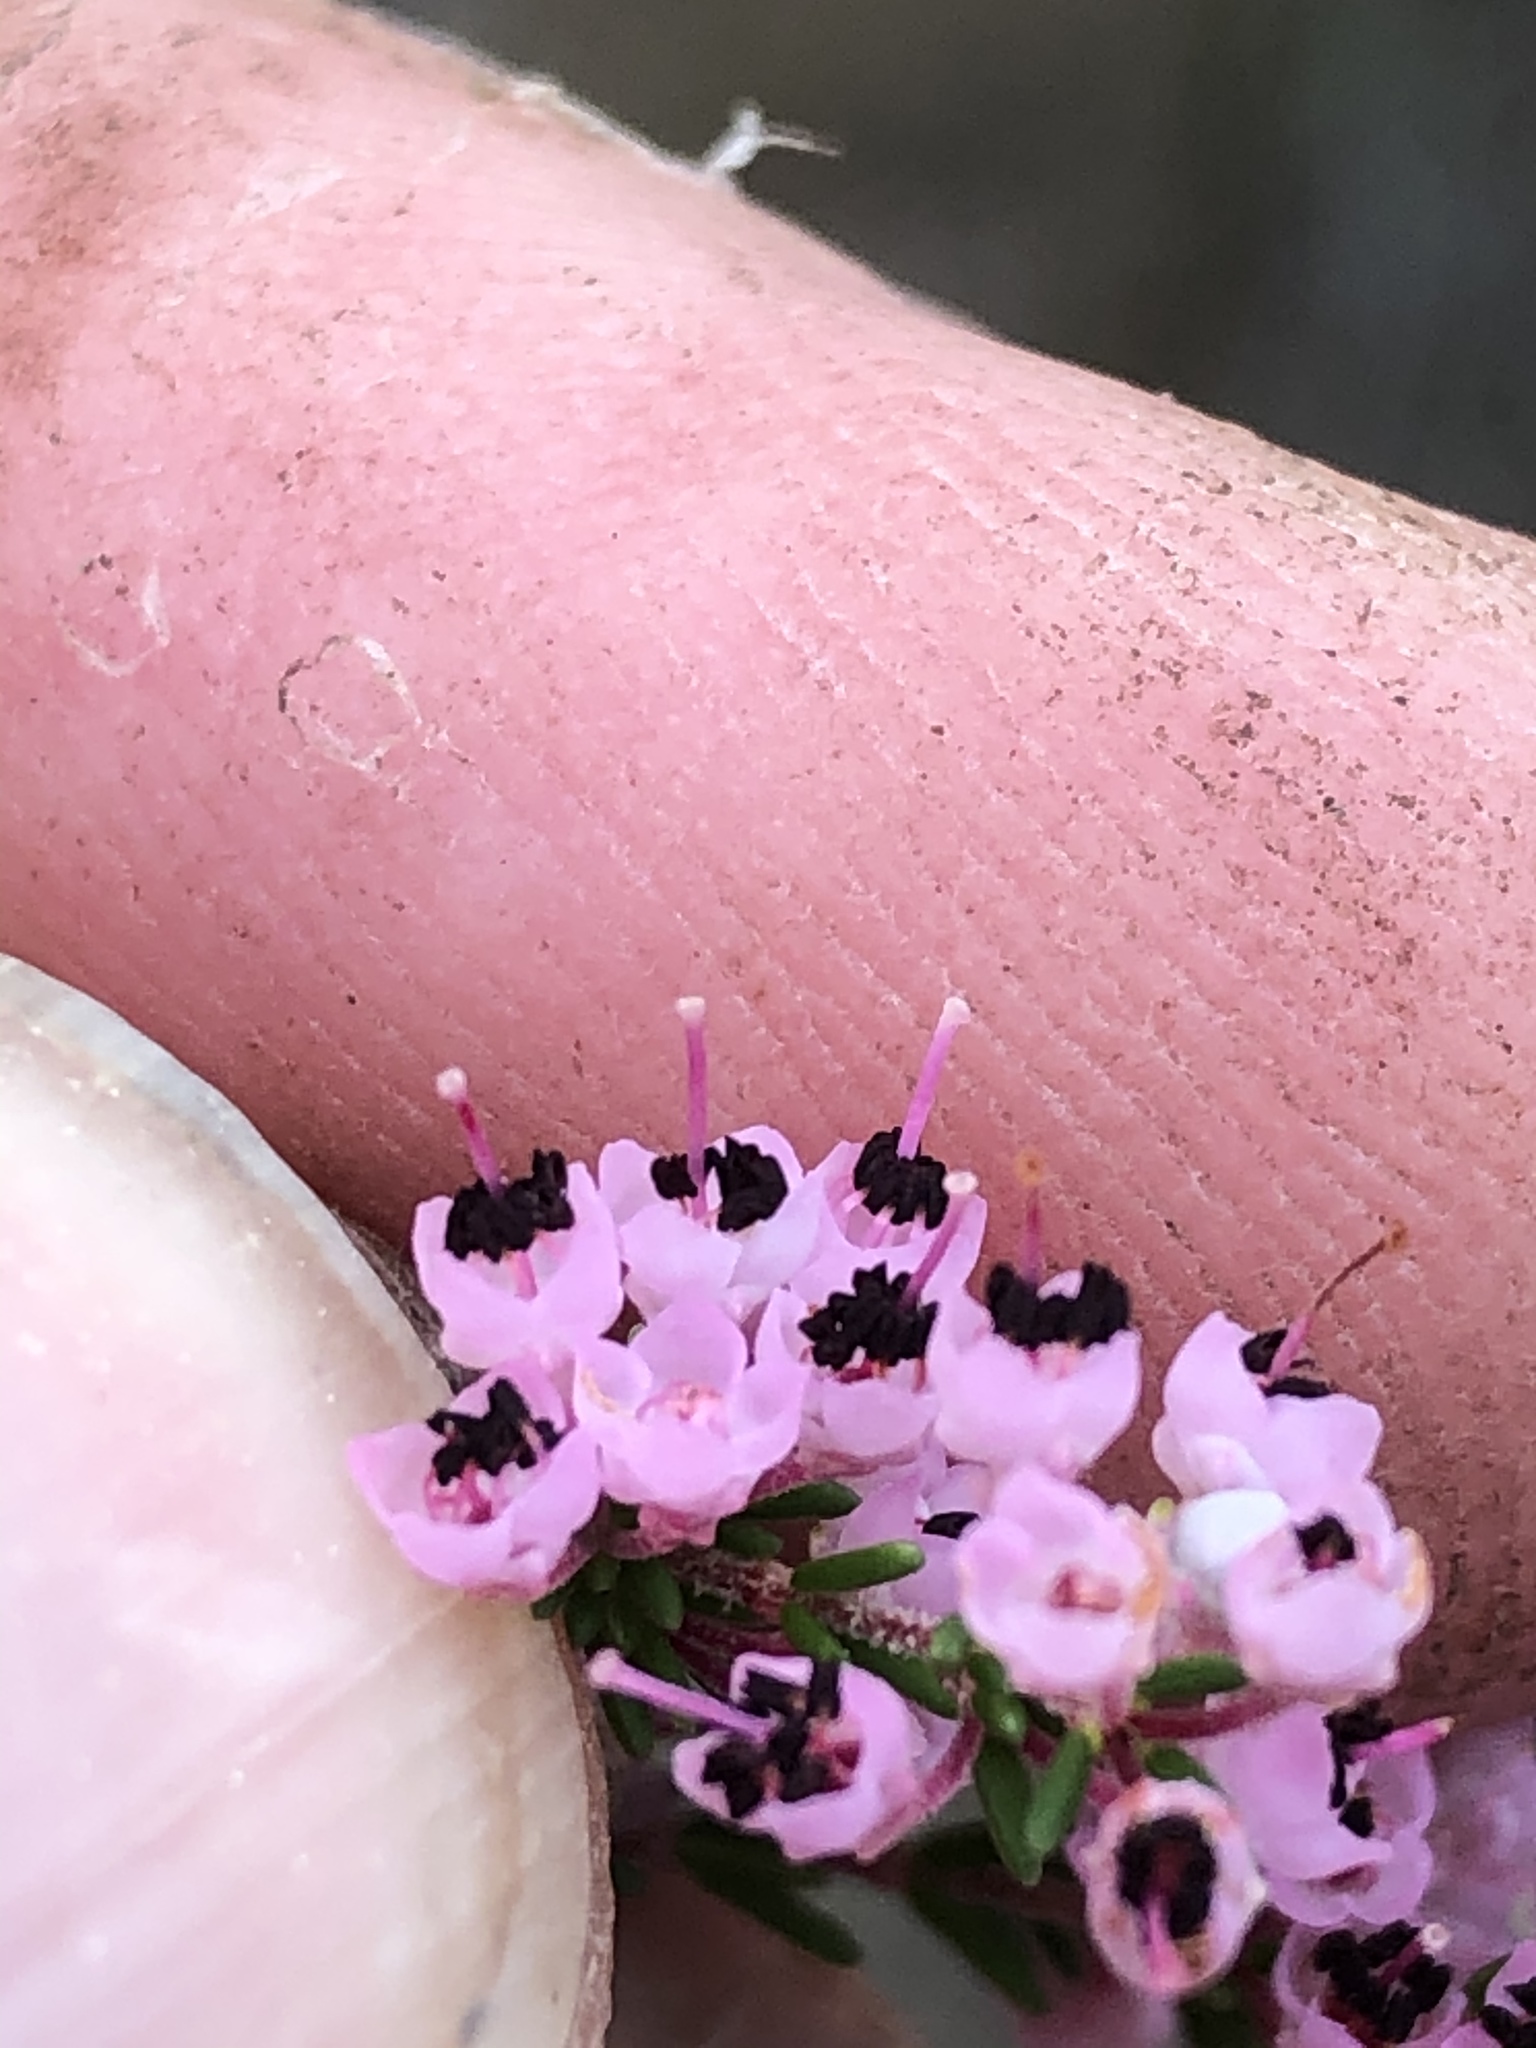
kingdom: Plantae
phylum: Tracheophyta
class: Magnoliopsida
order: Ericales
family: Ericaceae
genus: Erica
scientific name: Erica sparsa
